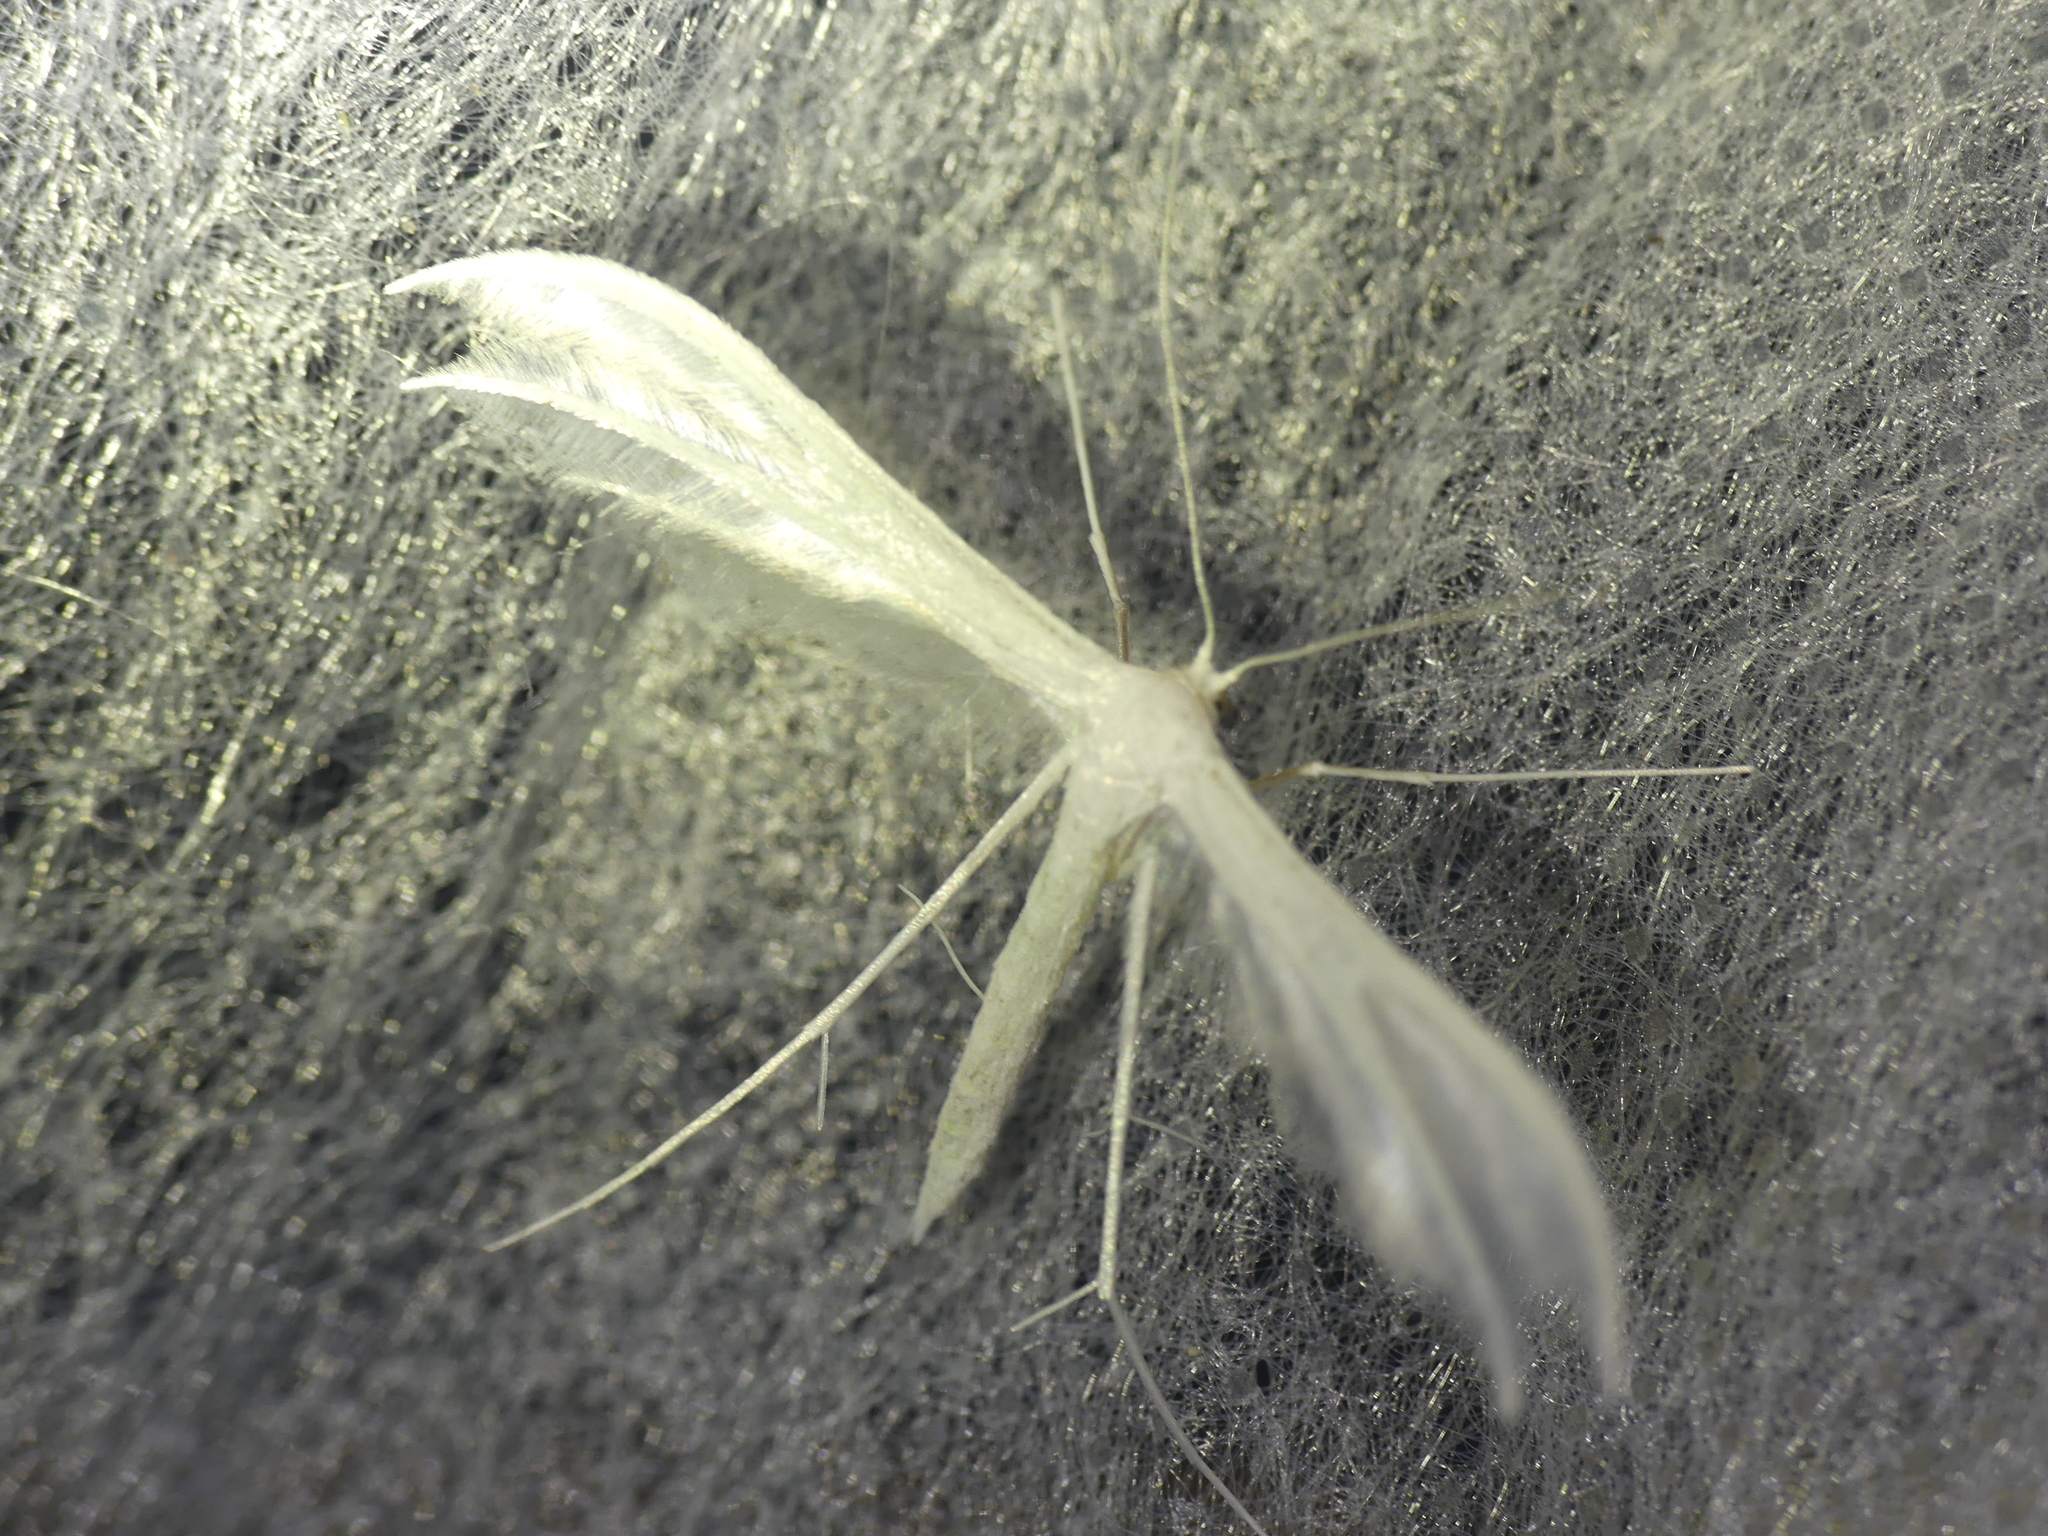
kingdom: Animalia
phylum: Arthropoda
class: Insecta
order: Lepidoptera
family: Pterophoridae
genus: Pterophorus
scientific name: Pterophorus pentadactyla
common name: White plume moth
